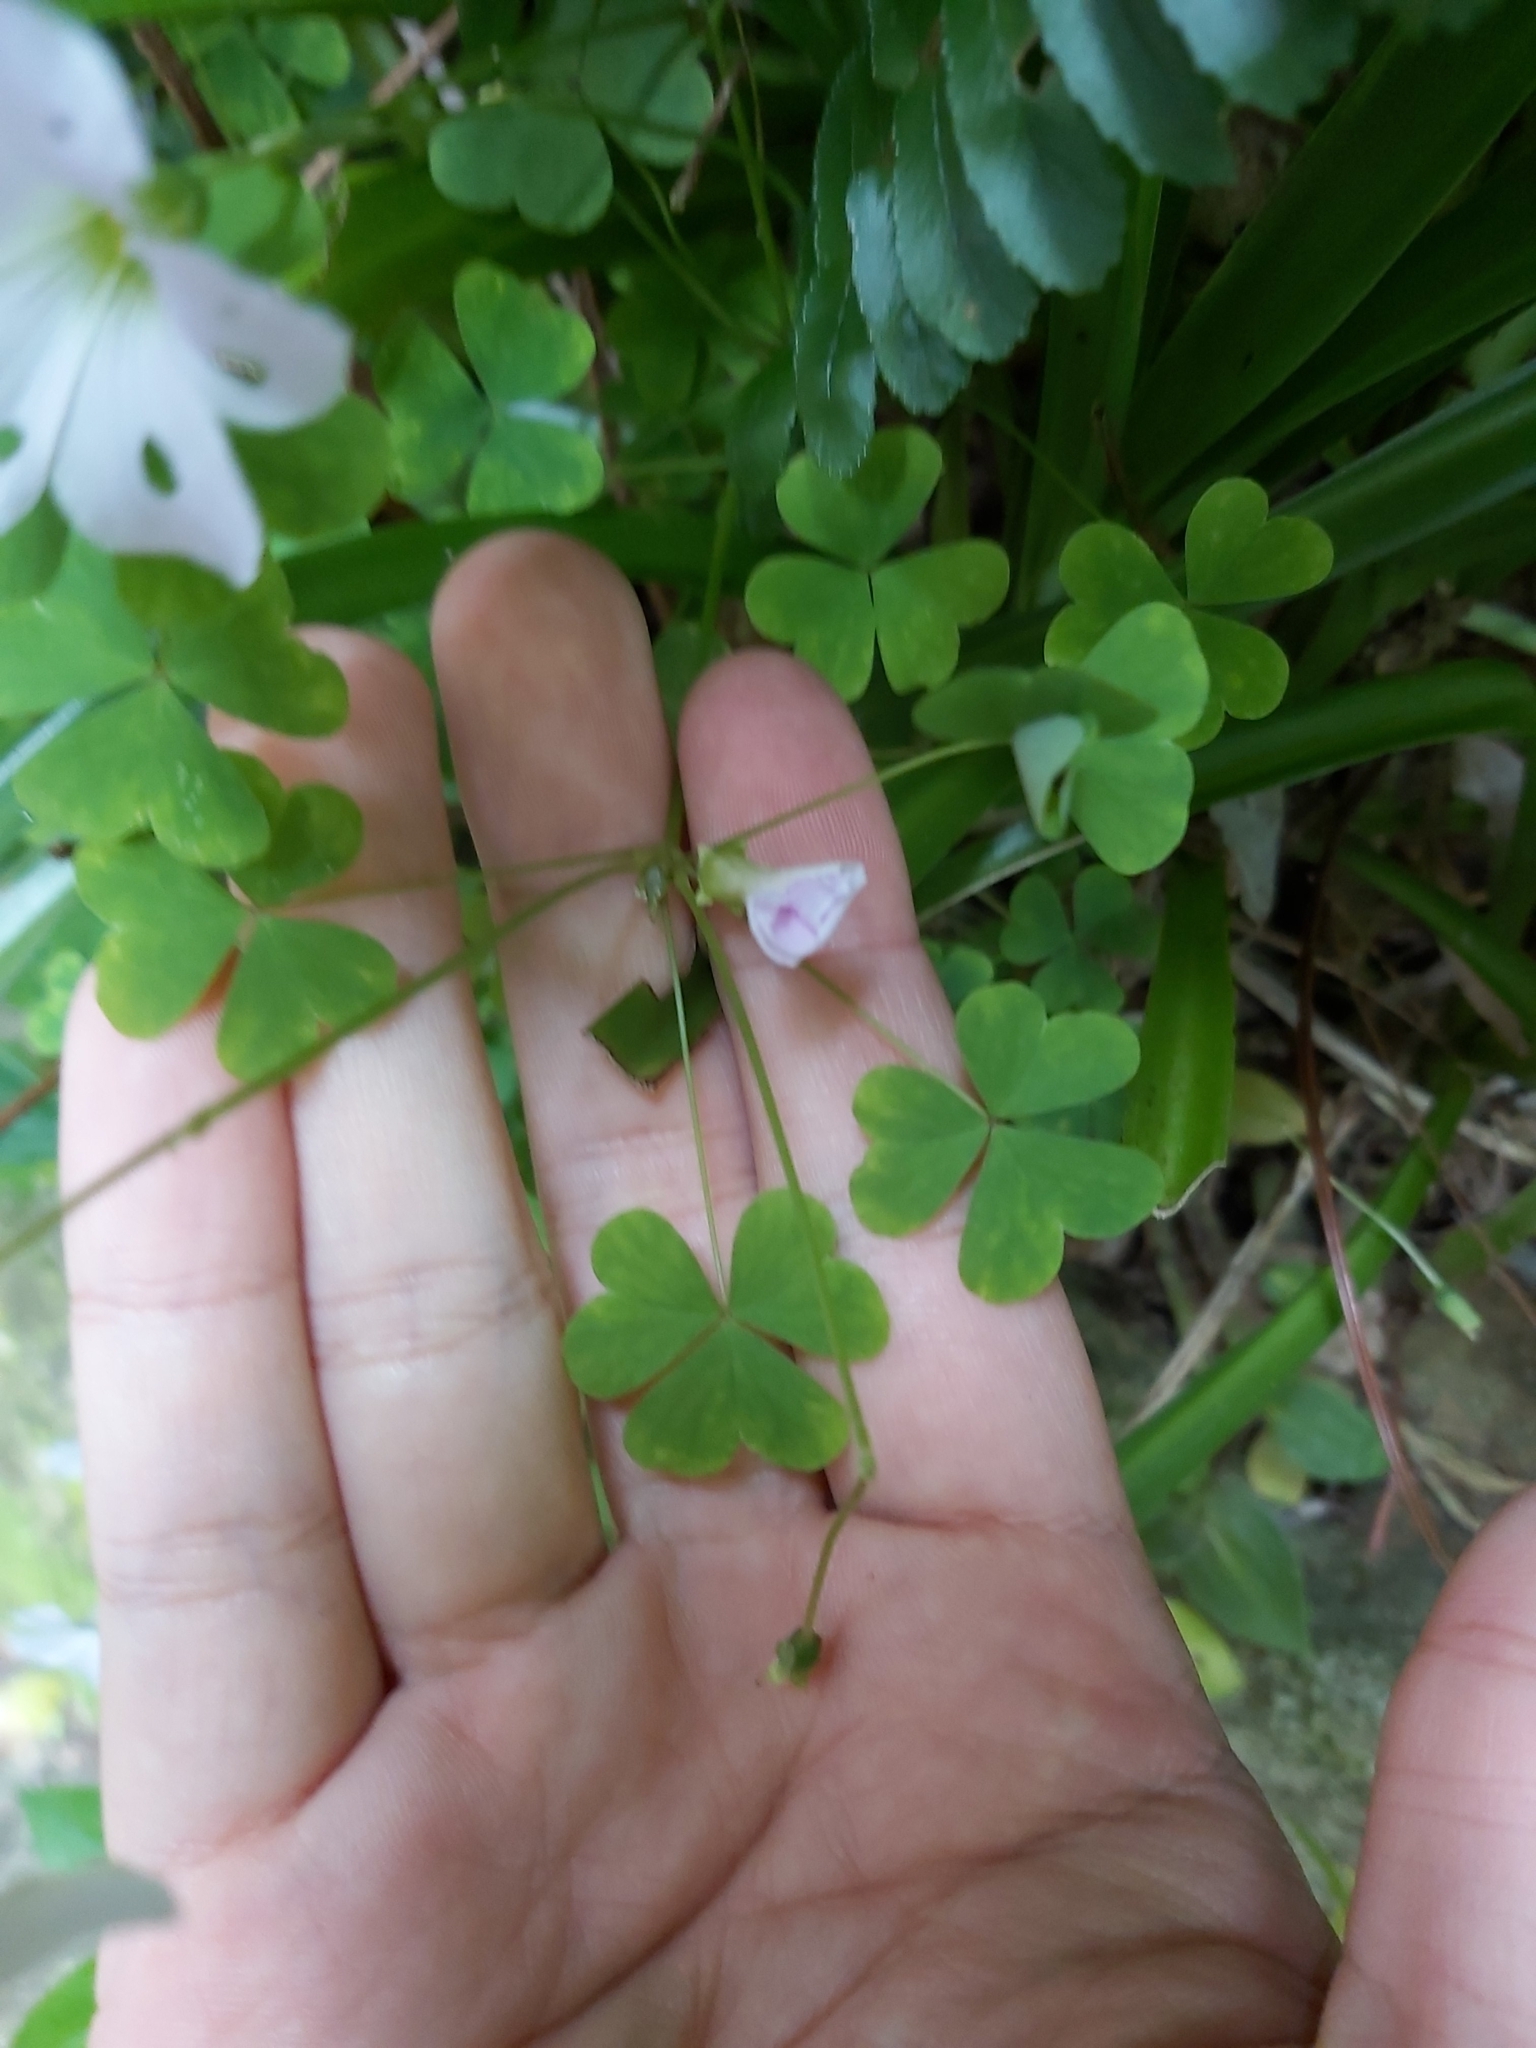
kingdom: Plantae
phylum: Tracheophyta
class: Magnoliopsida
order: Oxalidales
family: Oxalidaceae
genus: Oxalis
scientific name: Oxalis incarnata
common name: Pale pink-sorrel
